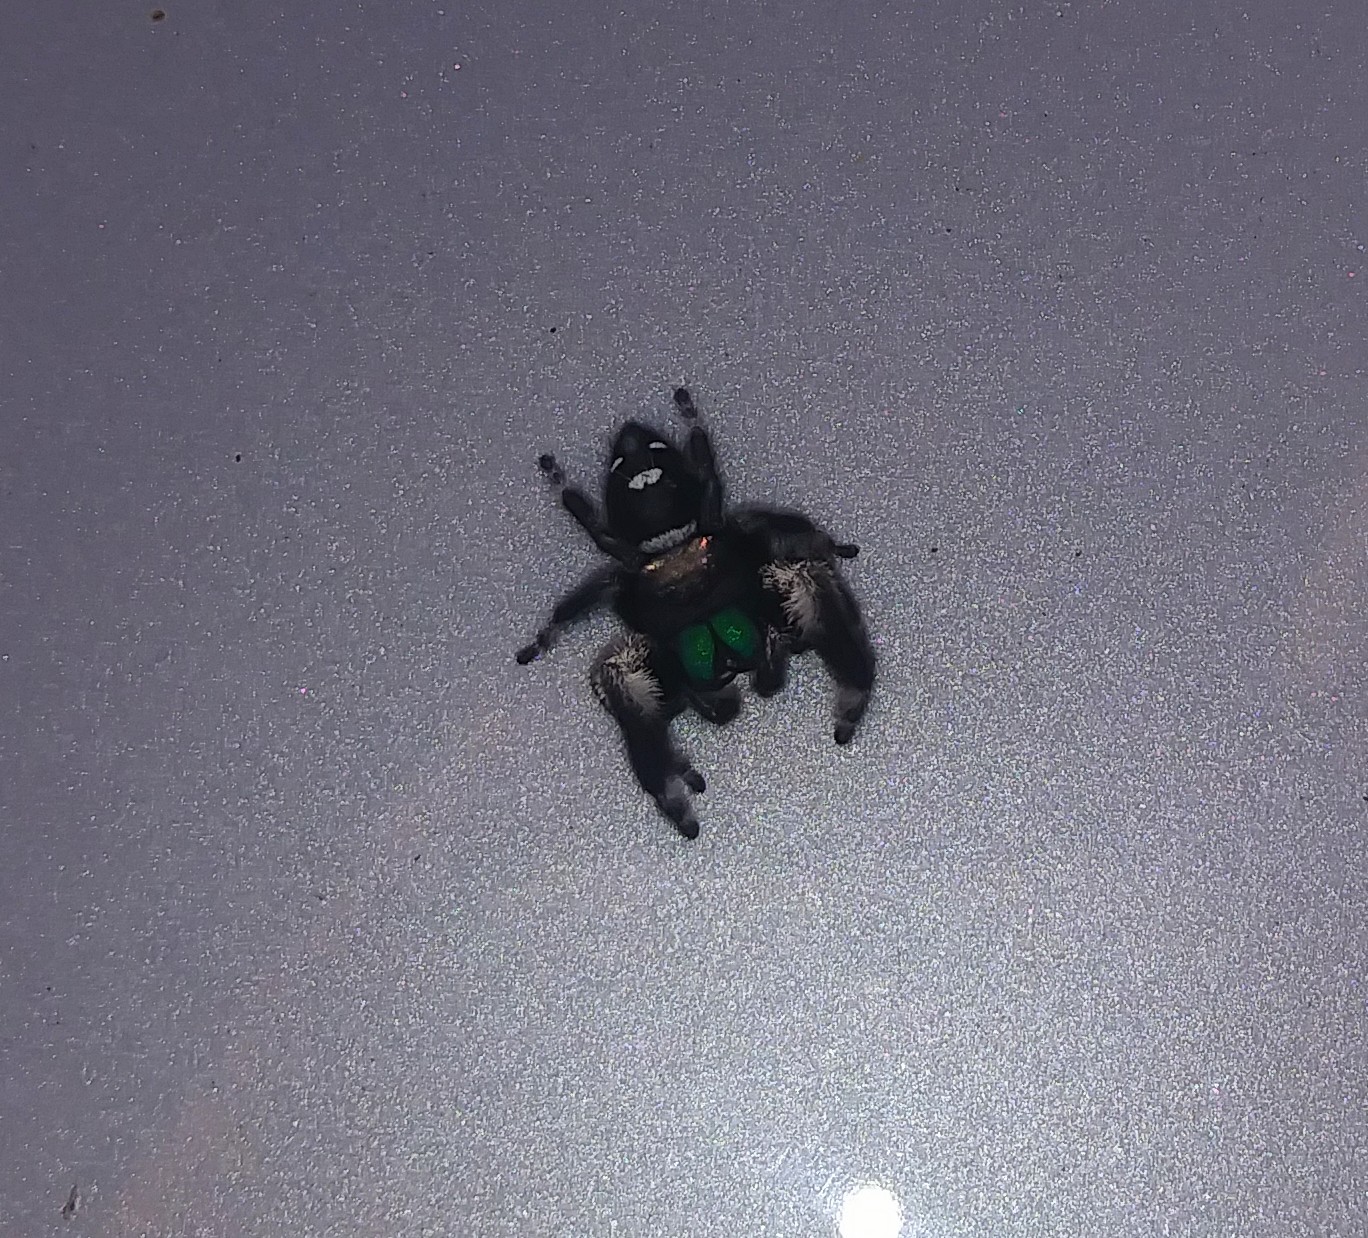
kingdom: Animalia
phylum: Arthropoda
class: Arachnida
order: Araneae
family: Salticidae
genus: Phidippus
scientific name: Phidippus regius
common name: Regal jumper
